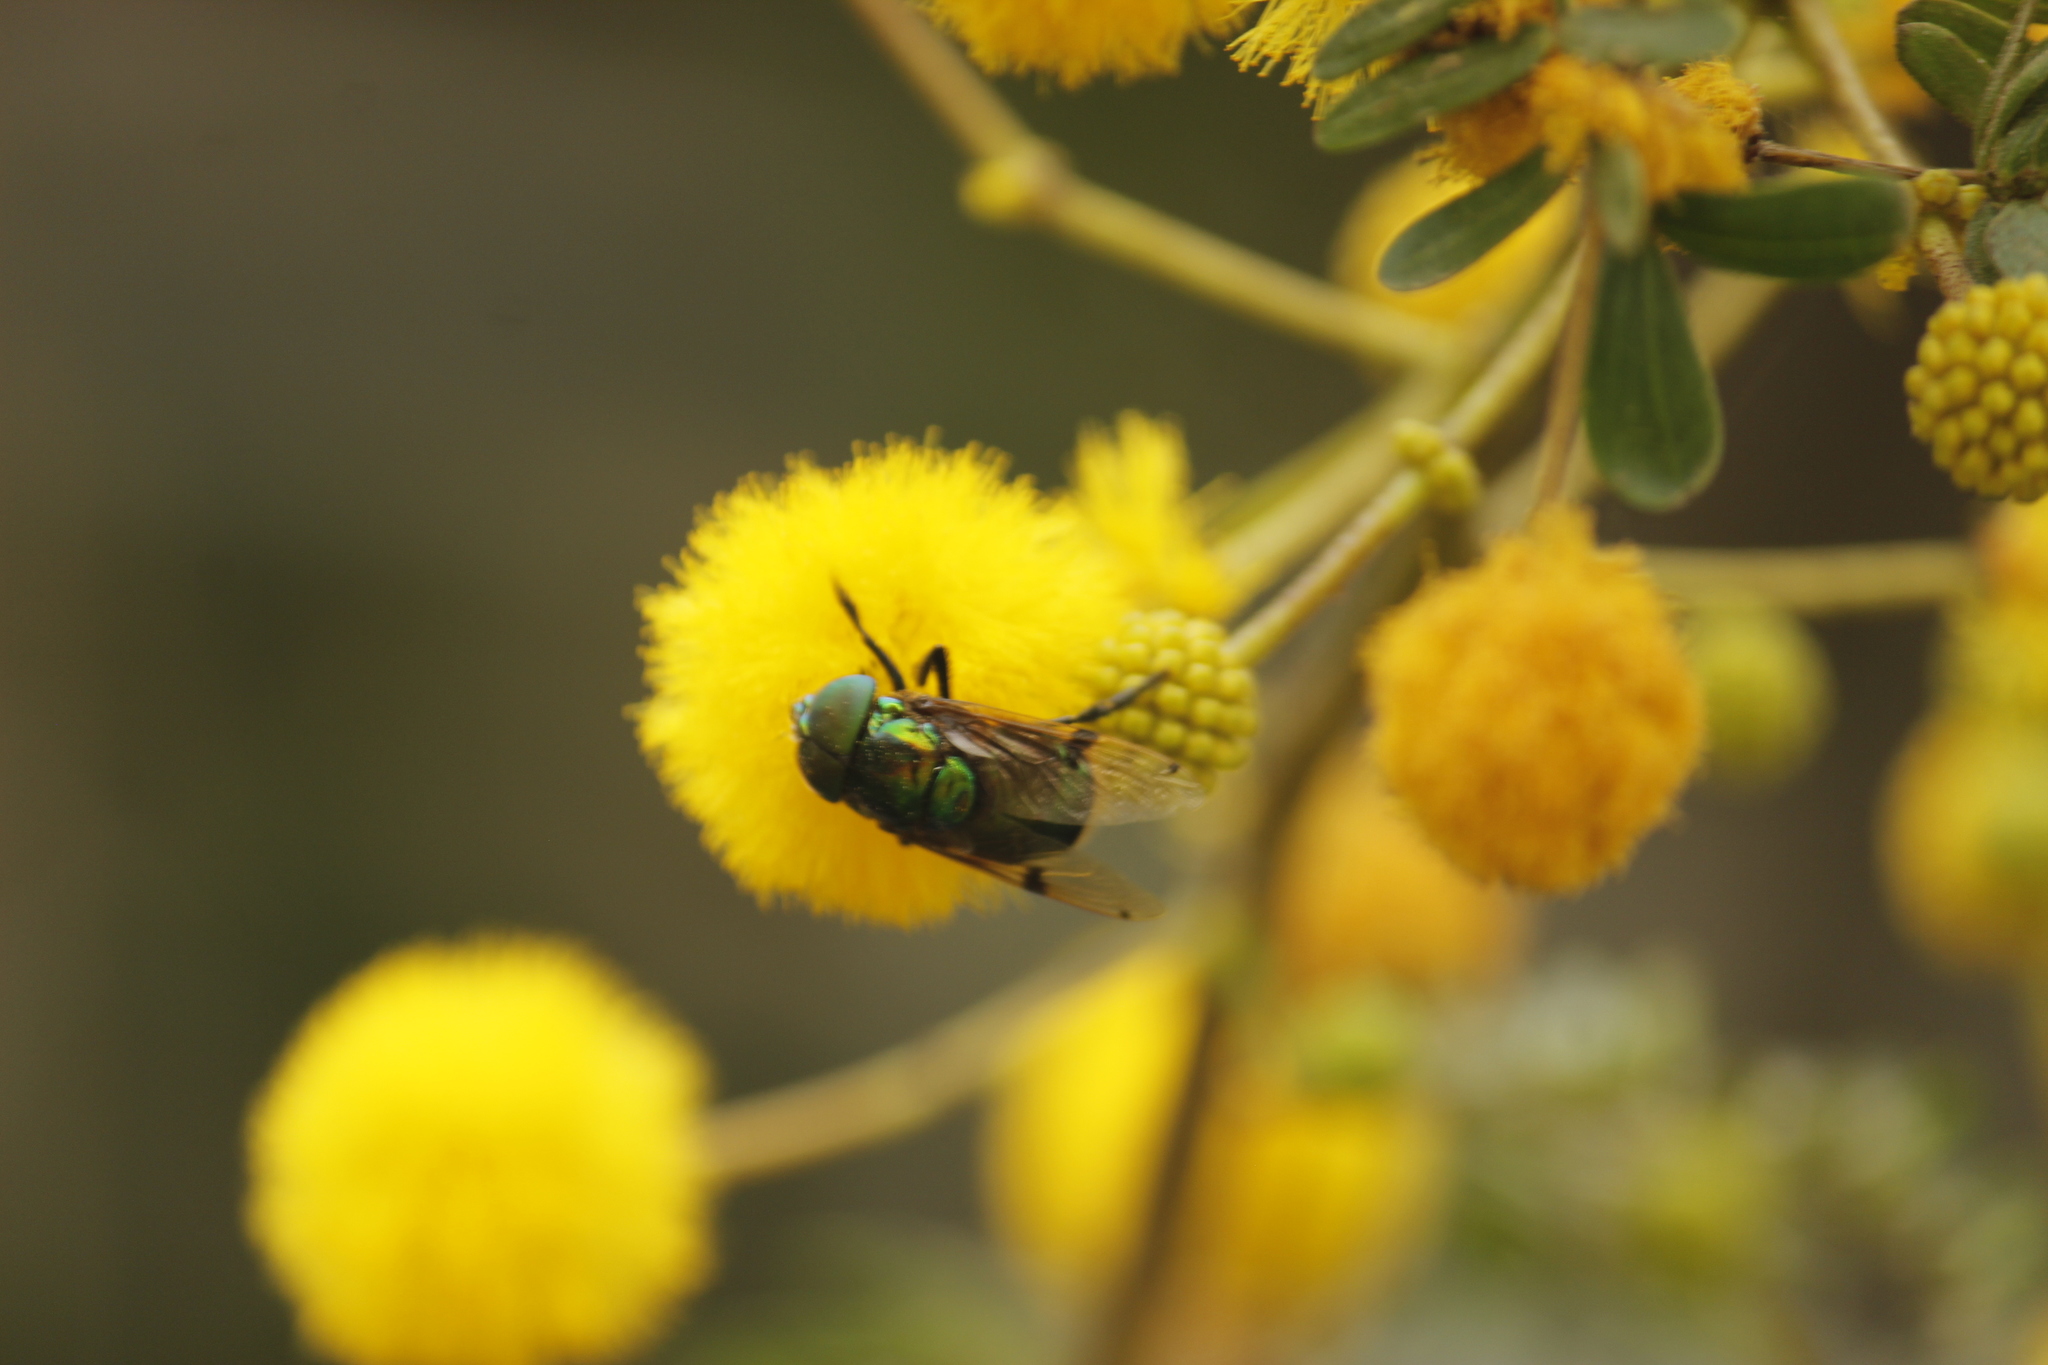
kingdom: Animalia
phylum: Arthropoda
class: Insecta
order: Diptera
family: Syrphidae
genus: Ornidia
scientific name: Ornidia obesa
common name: Syrphid fly
